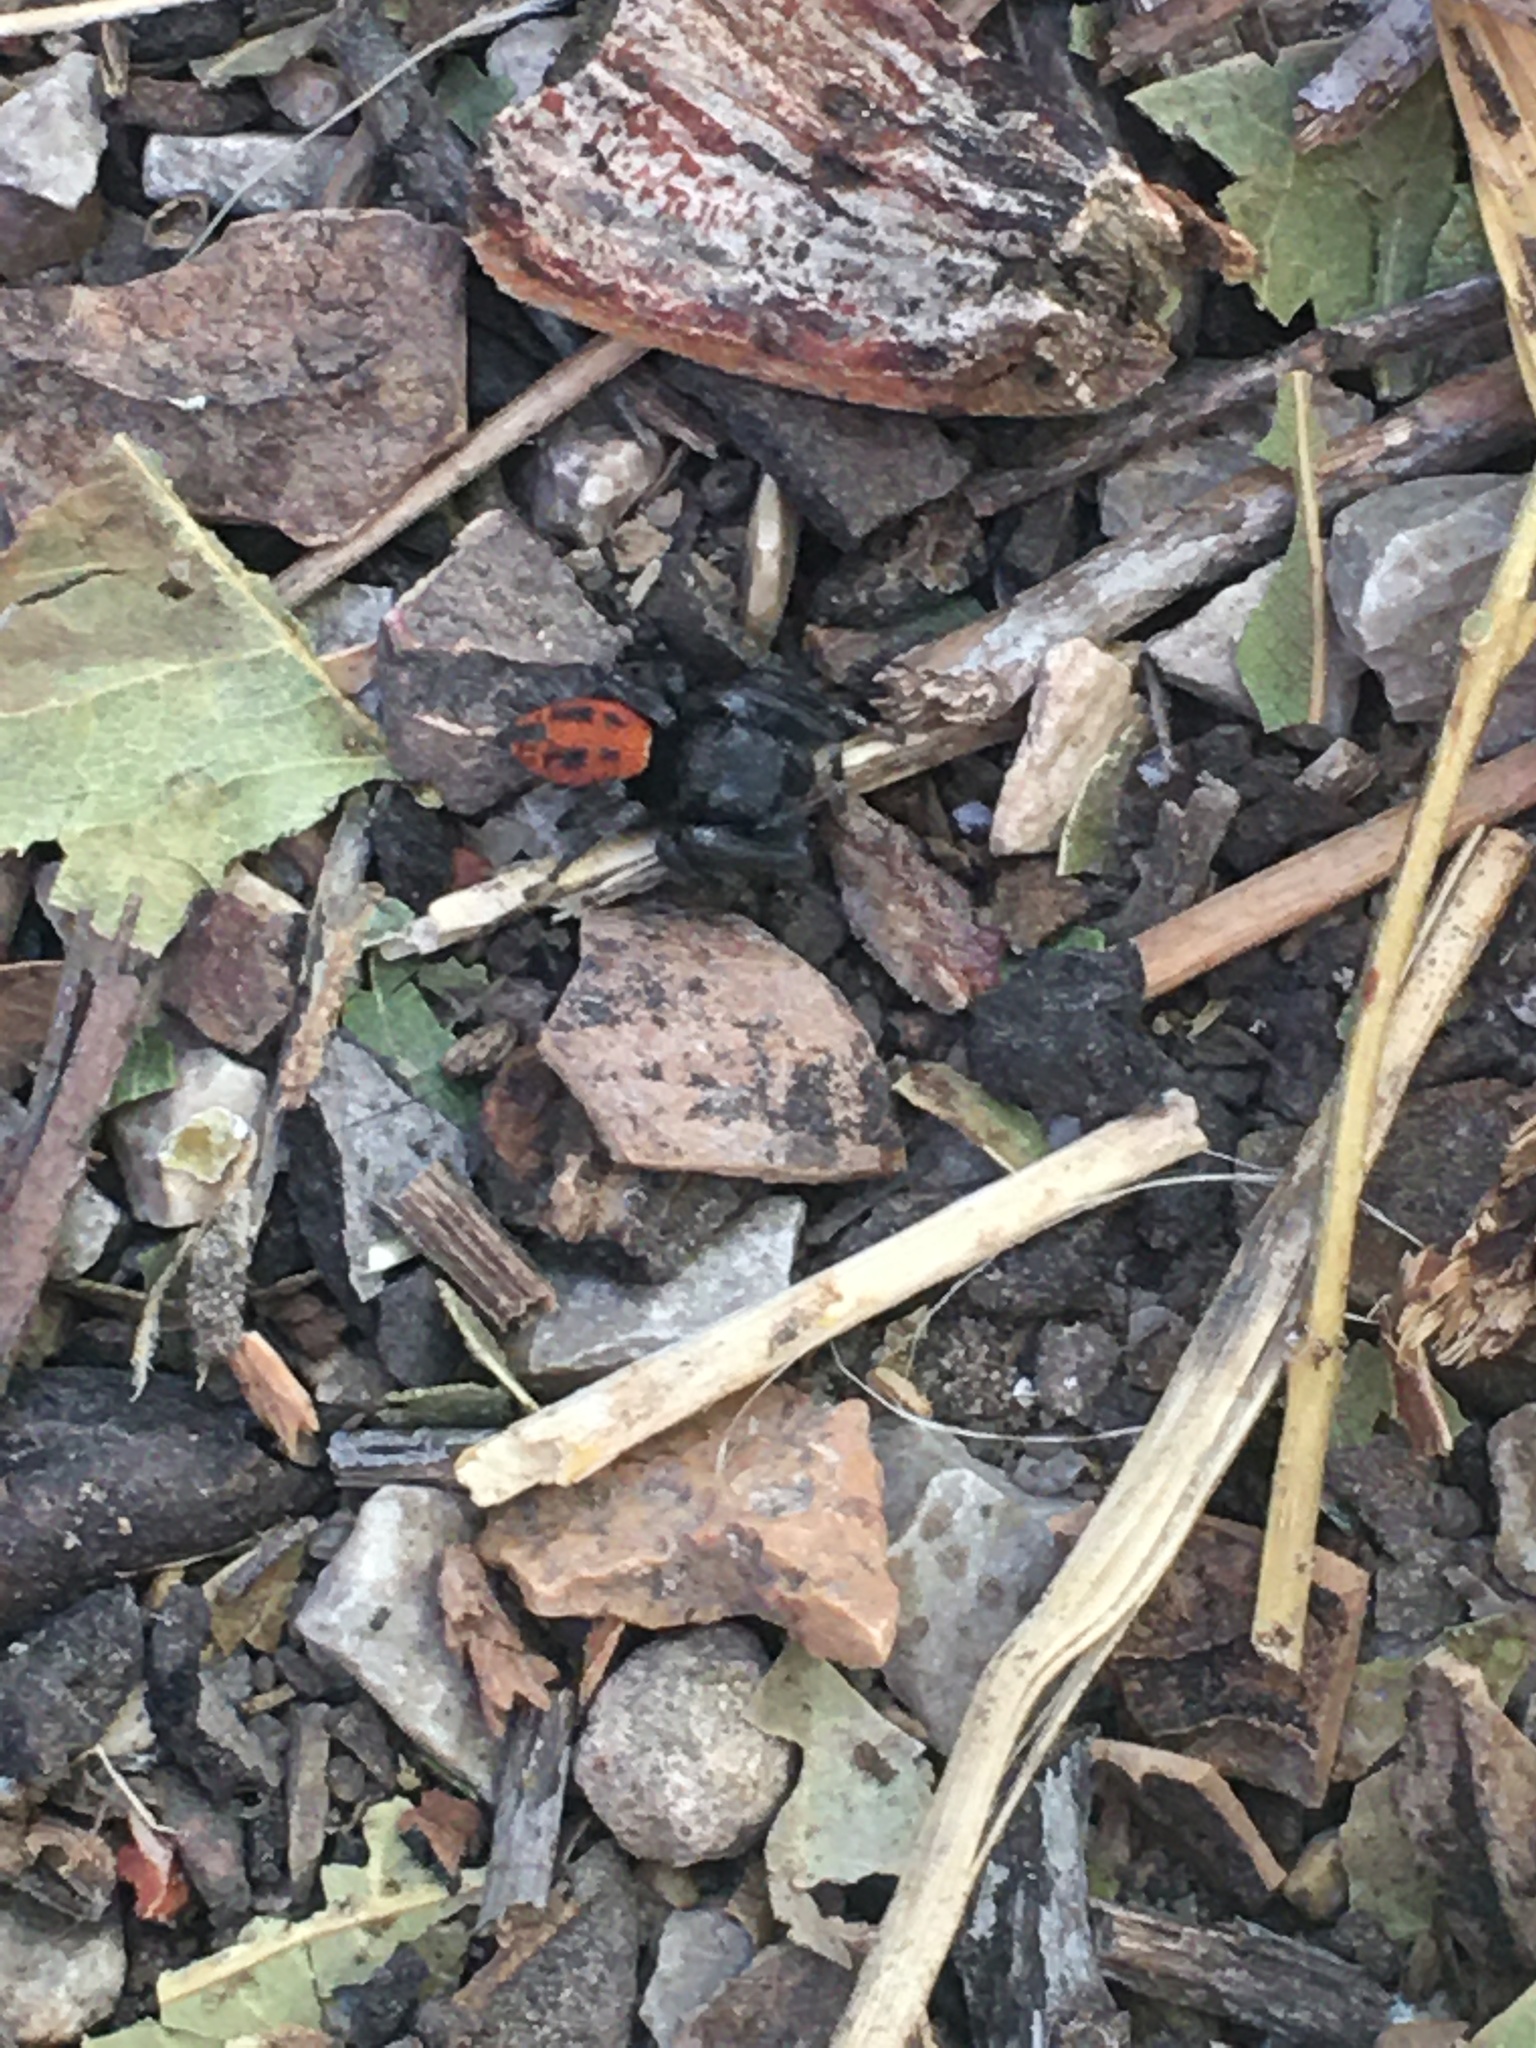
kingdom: Animalia
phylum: Arthropoda
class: Arachnida
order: Araneae
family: Salticidae
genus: Phidippus
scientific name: Phidippus texanus
